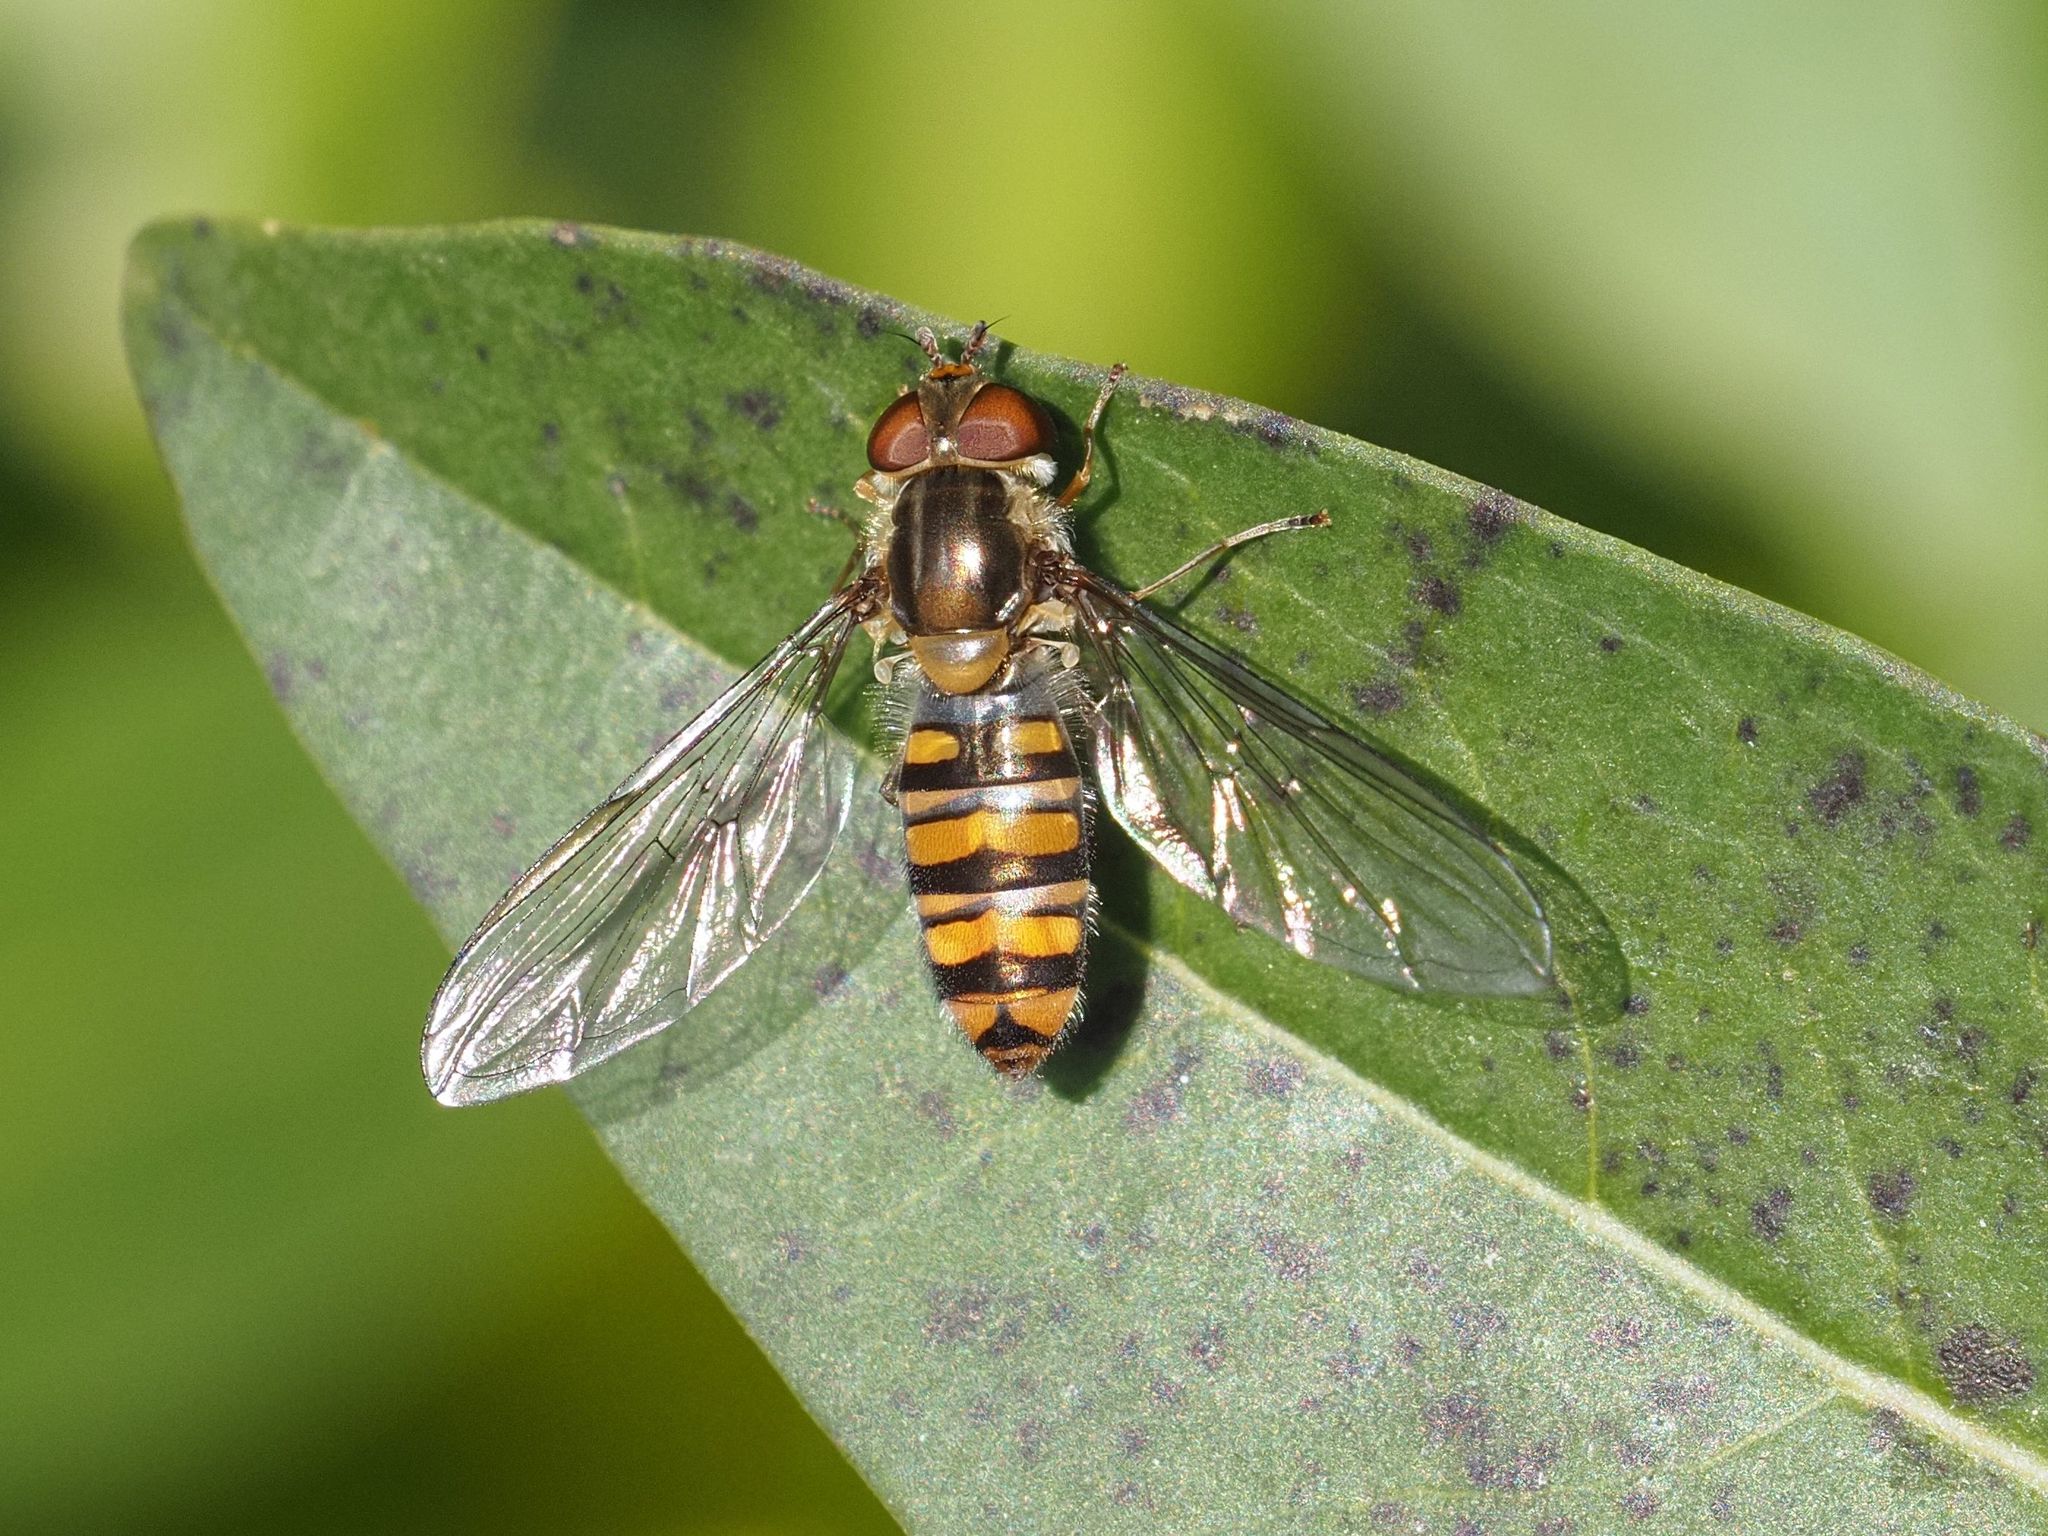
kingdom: Animalia
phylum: Arthropoda
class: Insecta
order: Diptera
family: Syrphidae
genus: Episyrphus
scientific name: Episyrphus balteatus
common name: Marmalade hoverfly
